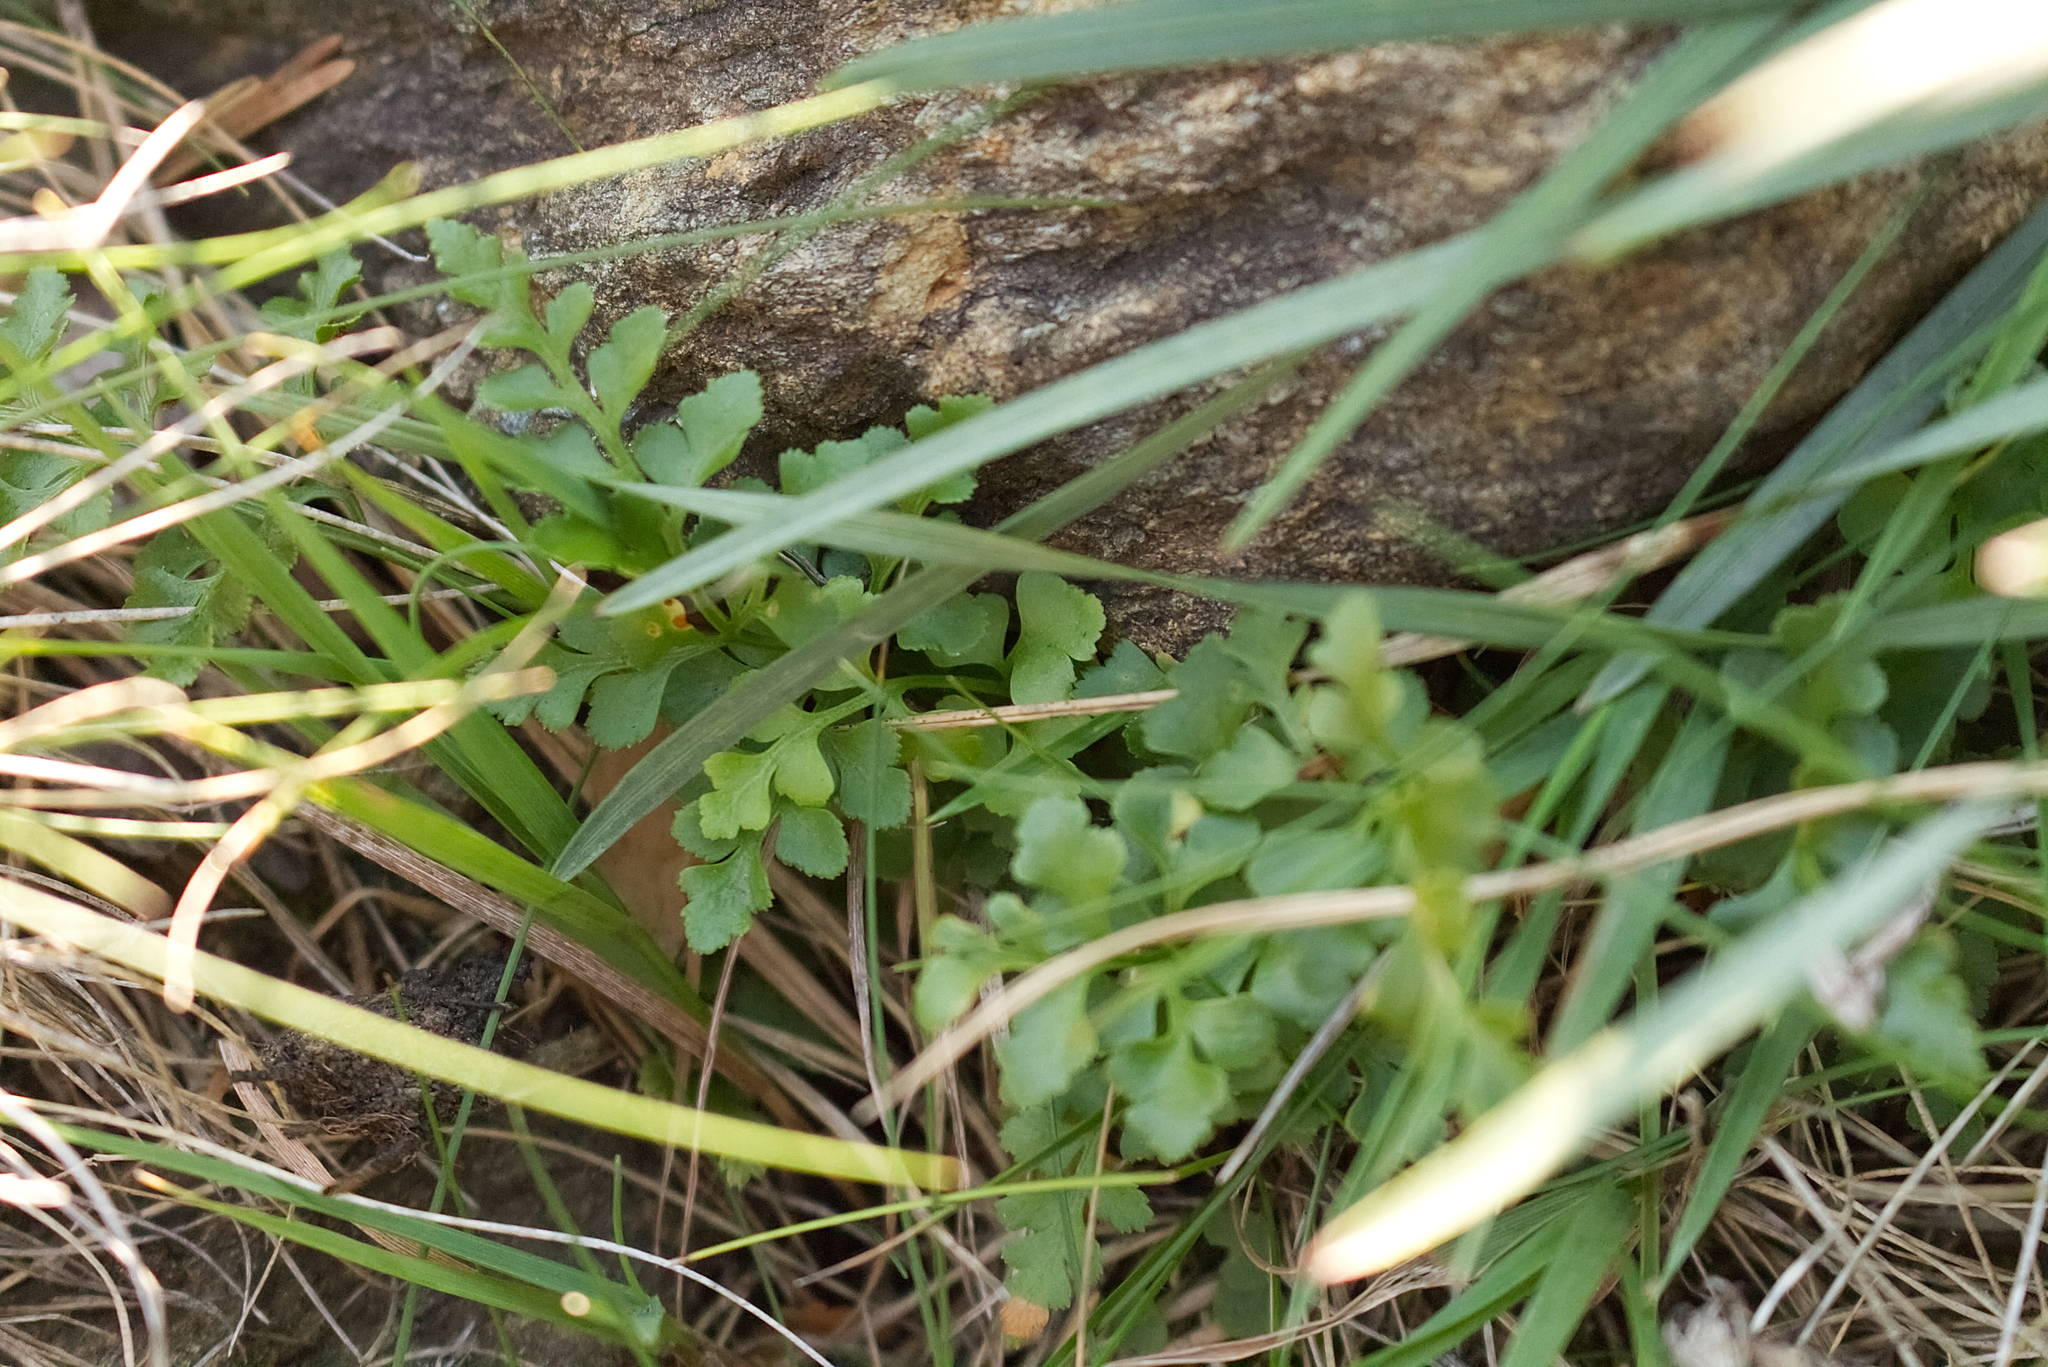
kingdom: Plantae
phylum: Tracheophyta
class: Polypodiopsida
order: Polypodiales
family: Aspleniaceae
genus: Asplenium
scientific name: Asplenium ruta-muraria
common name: Wall-rue
